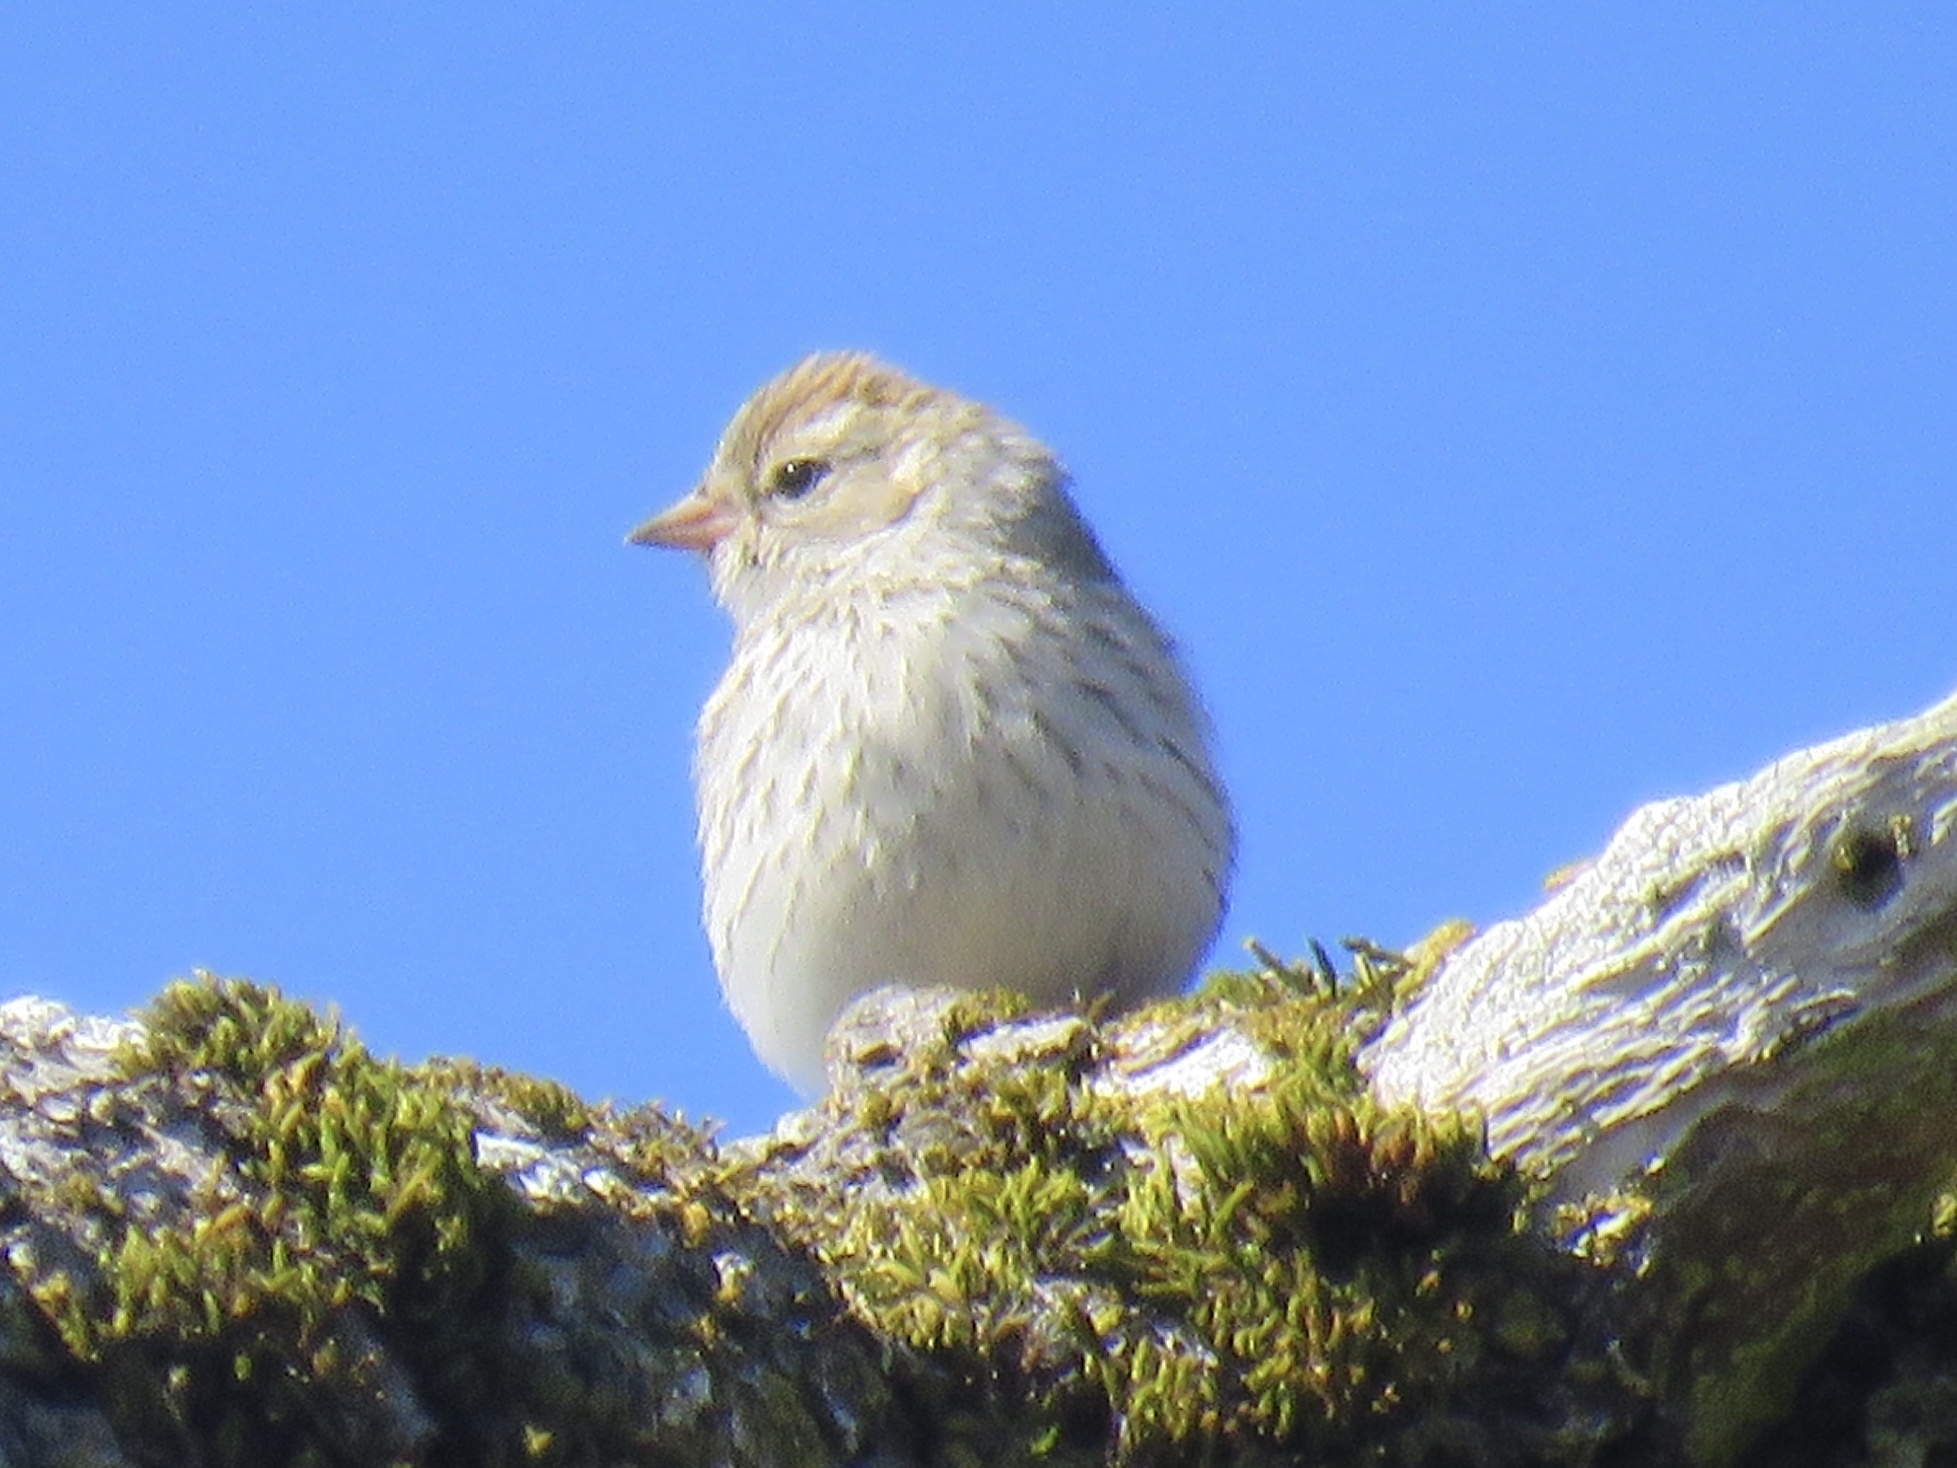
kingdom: Animalia
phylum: Chordata
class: Aves
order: Passeriformes
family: Passerellidae
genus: Spizella
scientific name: Spizella passerina
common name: Chipping sparrow
